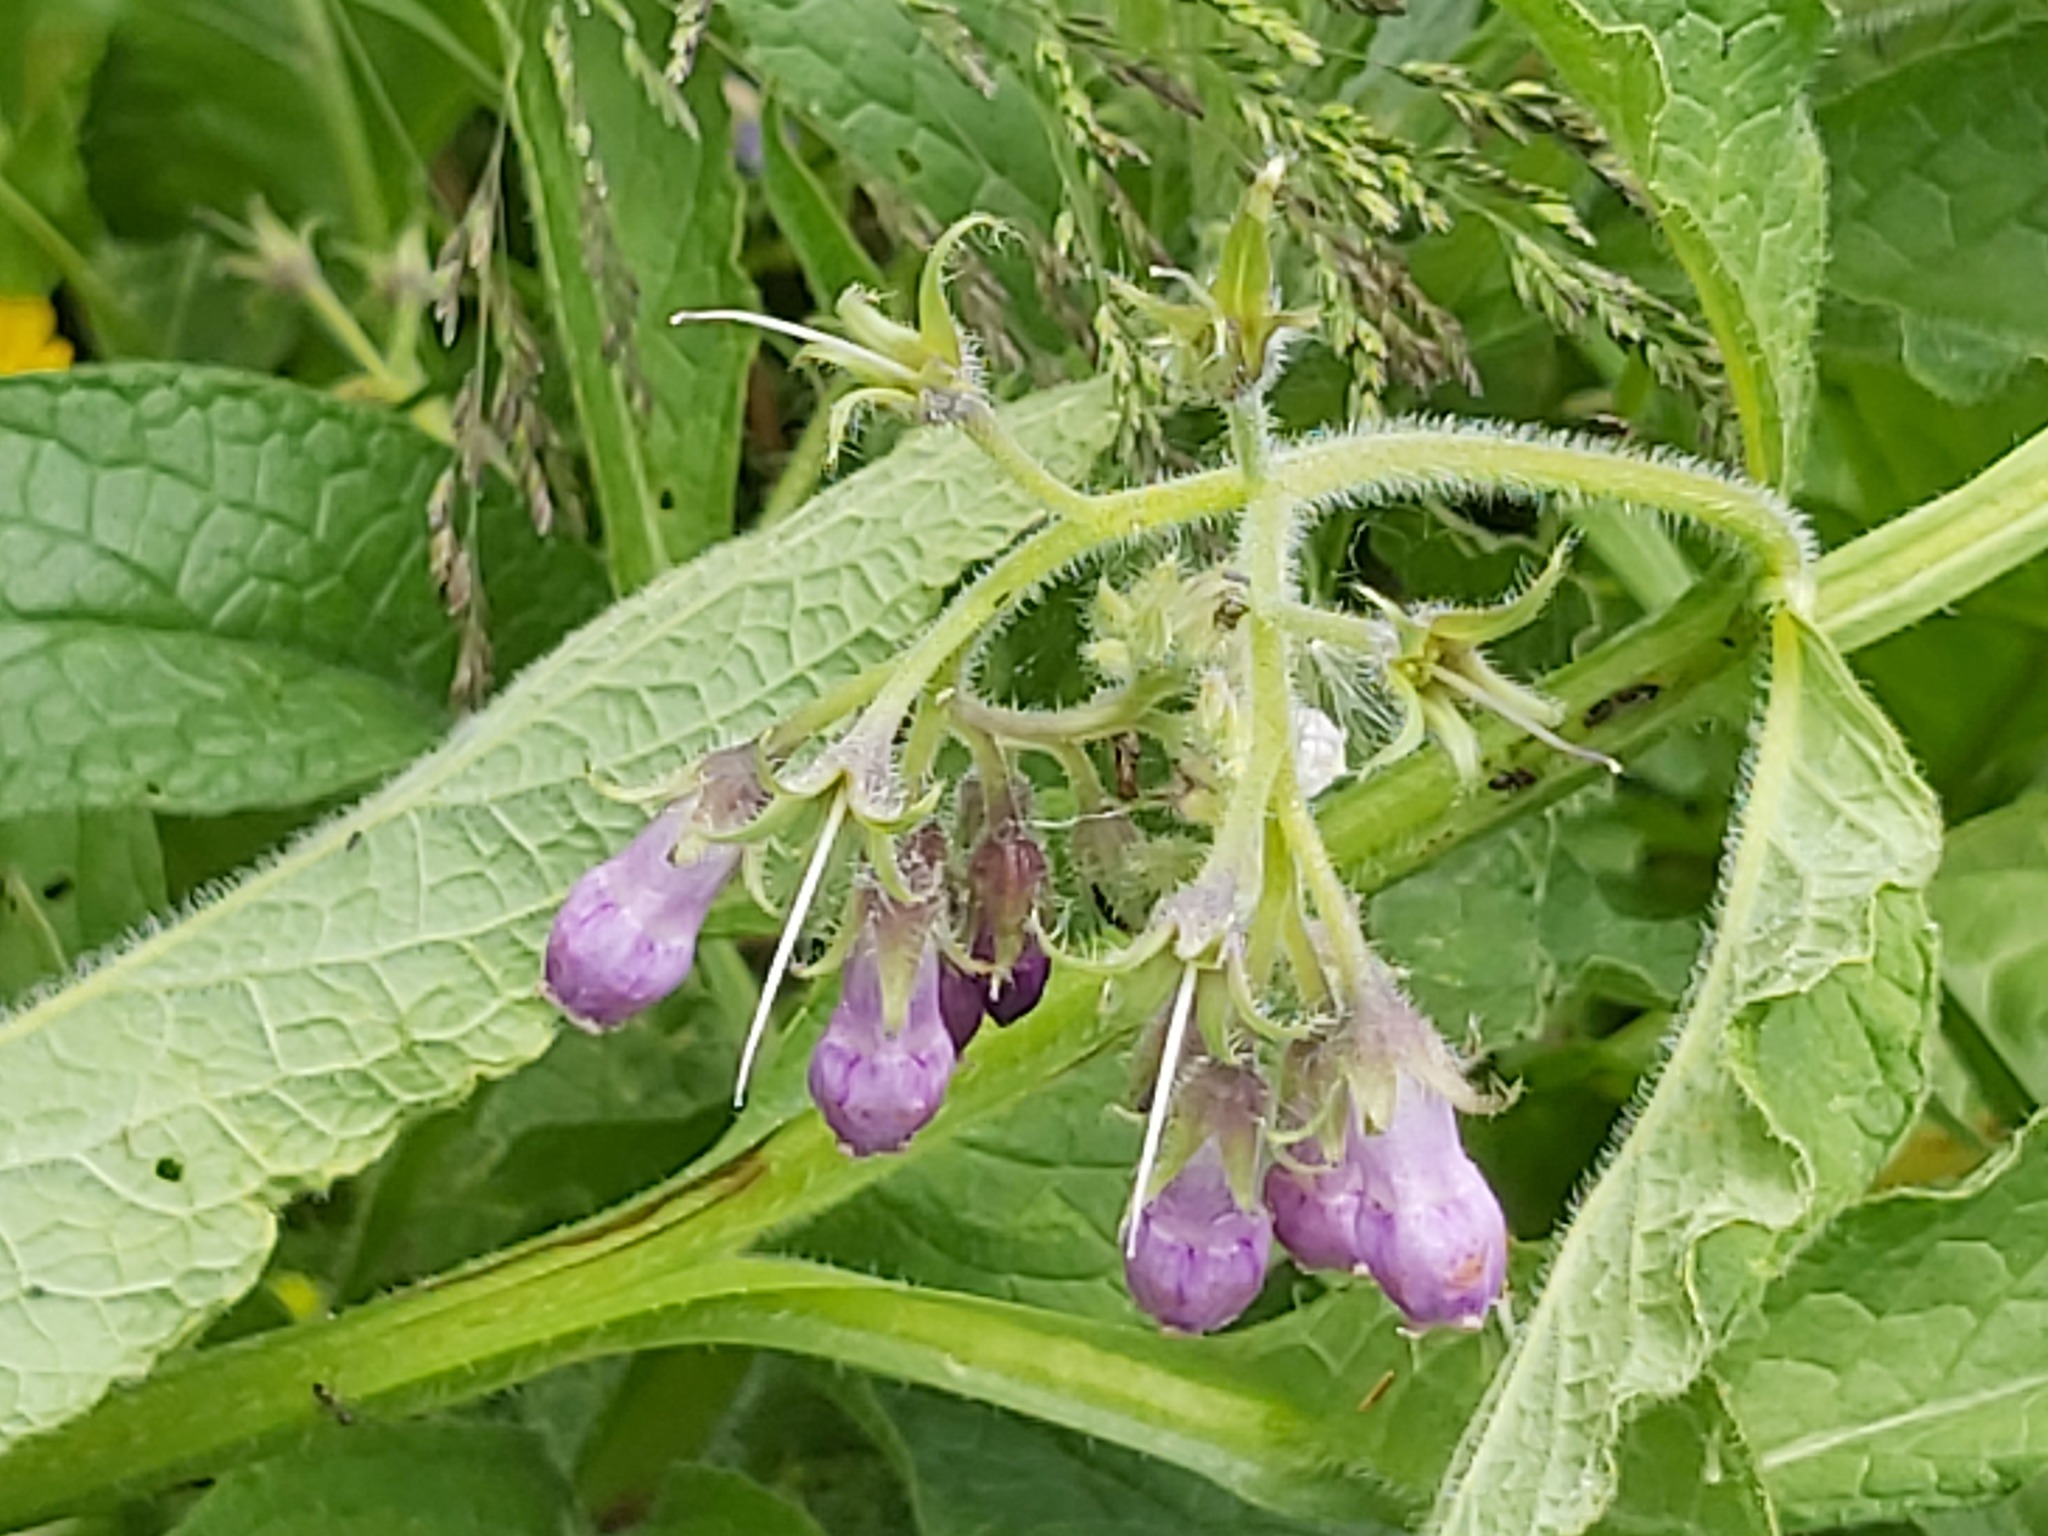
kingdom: Plantae
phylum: Tracheophyta
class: Magnoliopsida
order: Boraginales
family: Boraginaceae
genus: Symphytum
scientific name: Symphytum officinale
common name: Common comfrey
